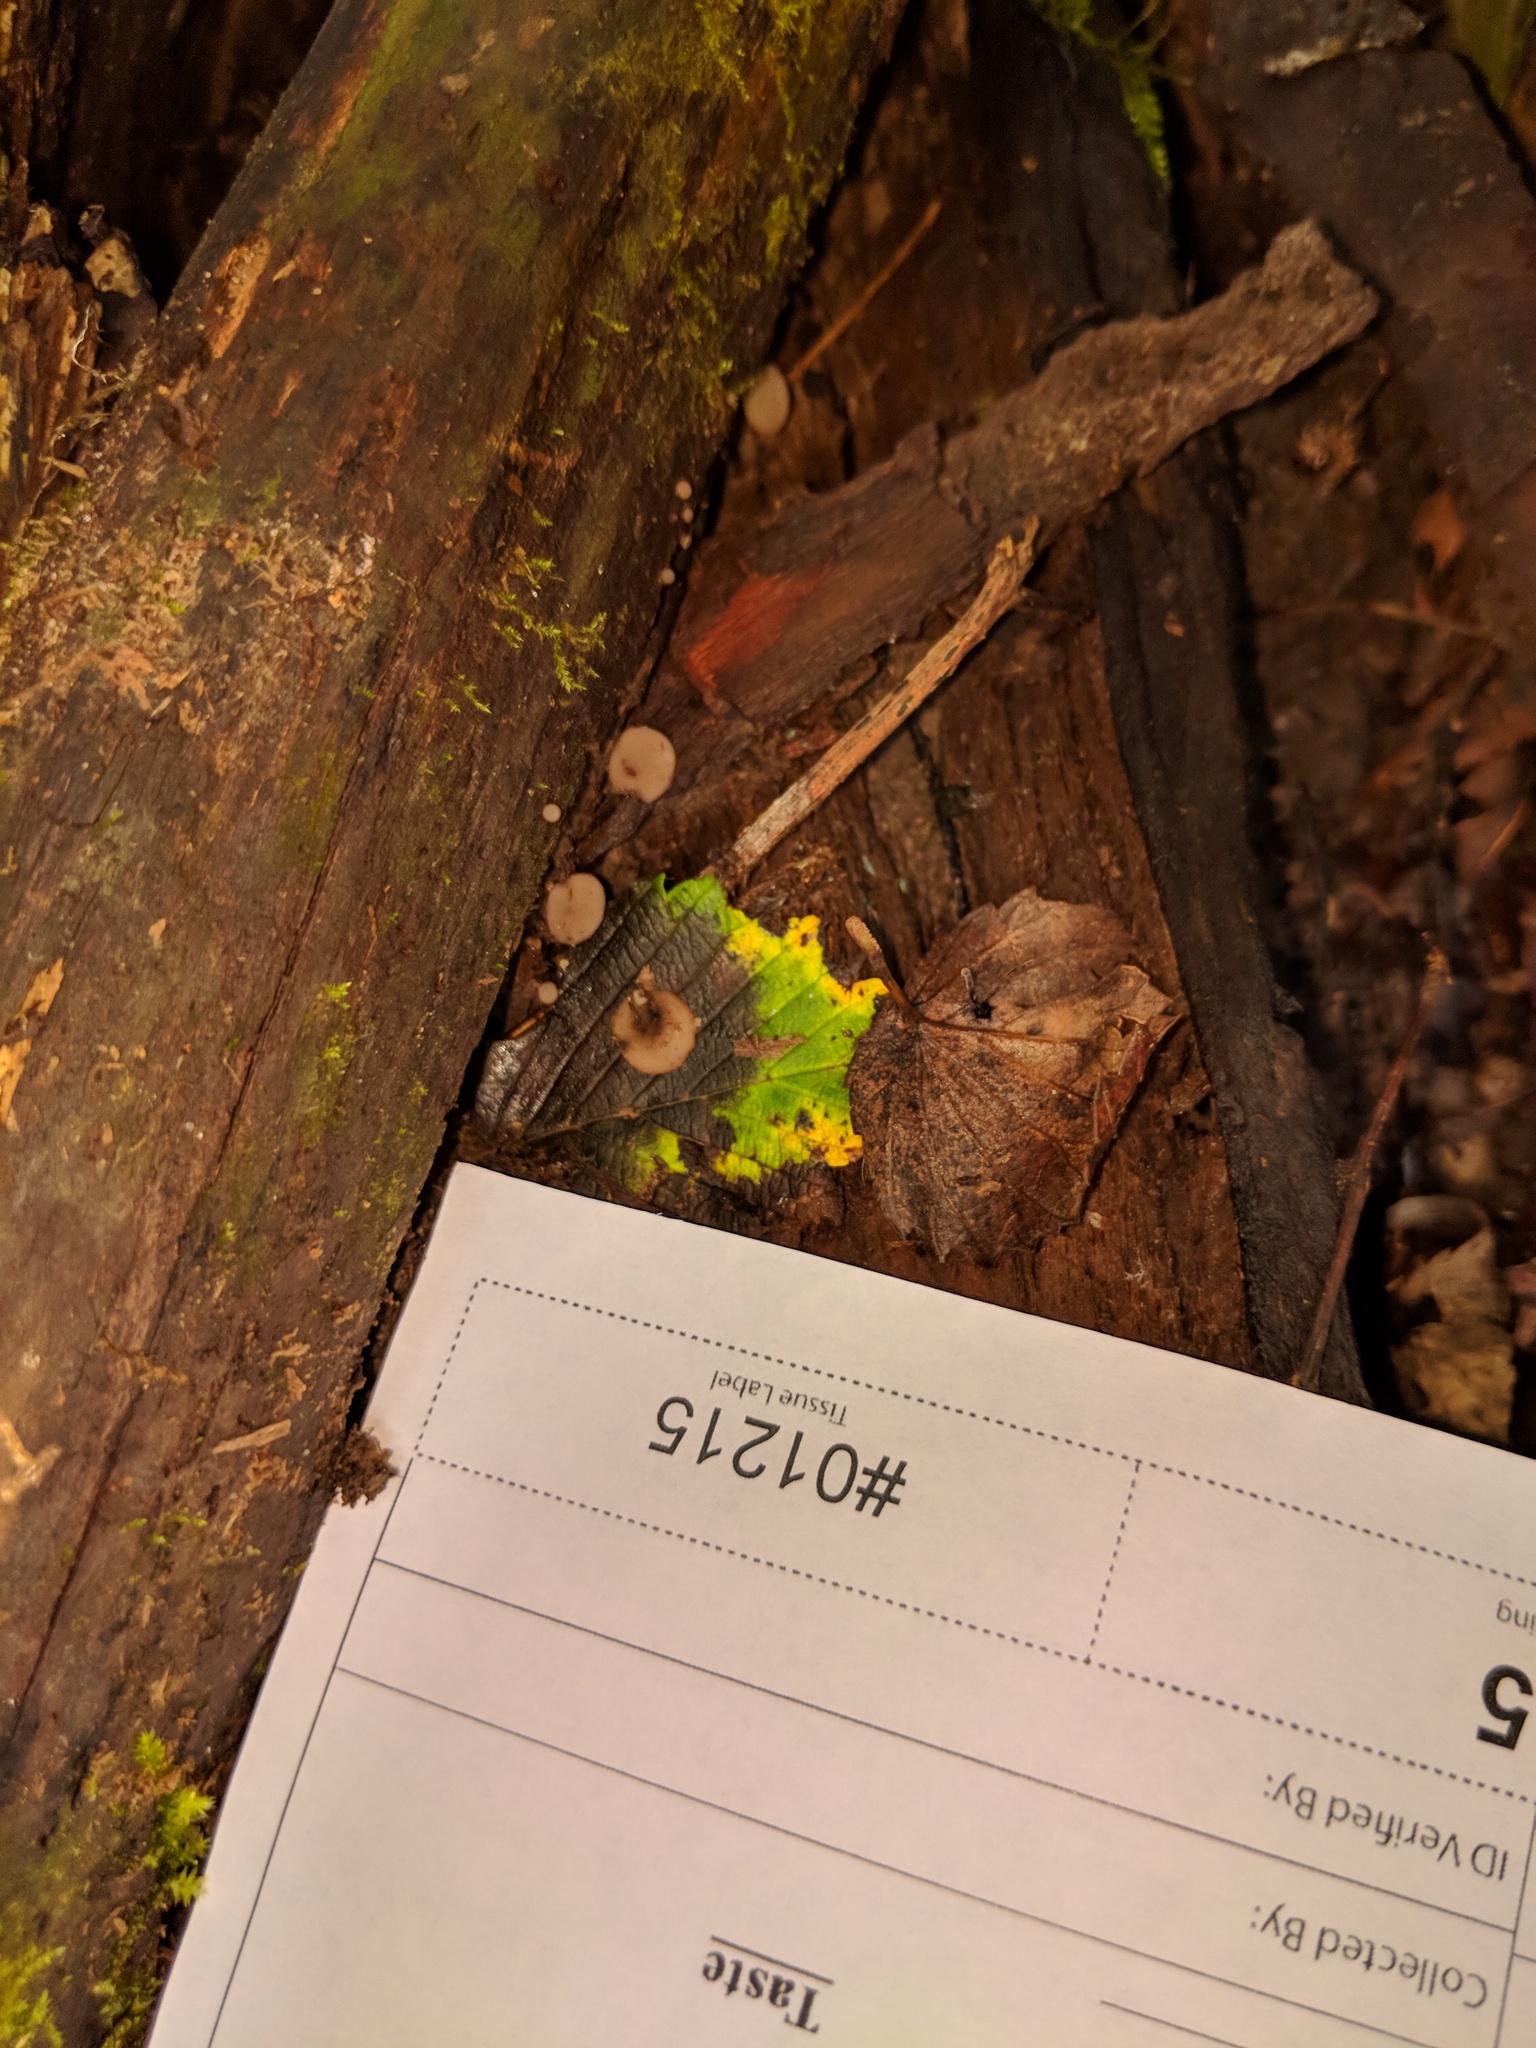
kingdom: Fungi
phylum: Ascomycota
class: Leotiomycetes
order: Helotiales
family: Helotiaceae
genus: Tatraea
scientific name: Tatraea macrospora
